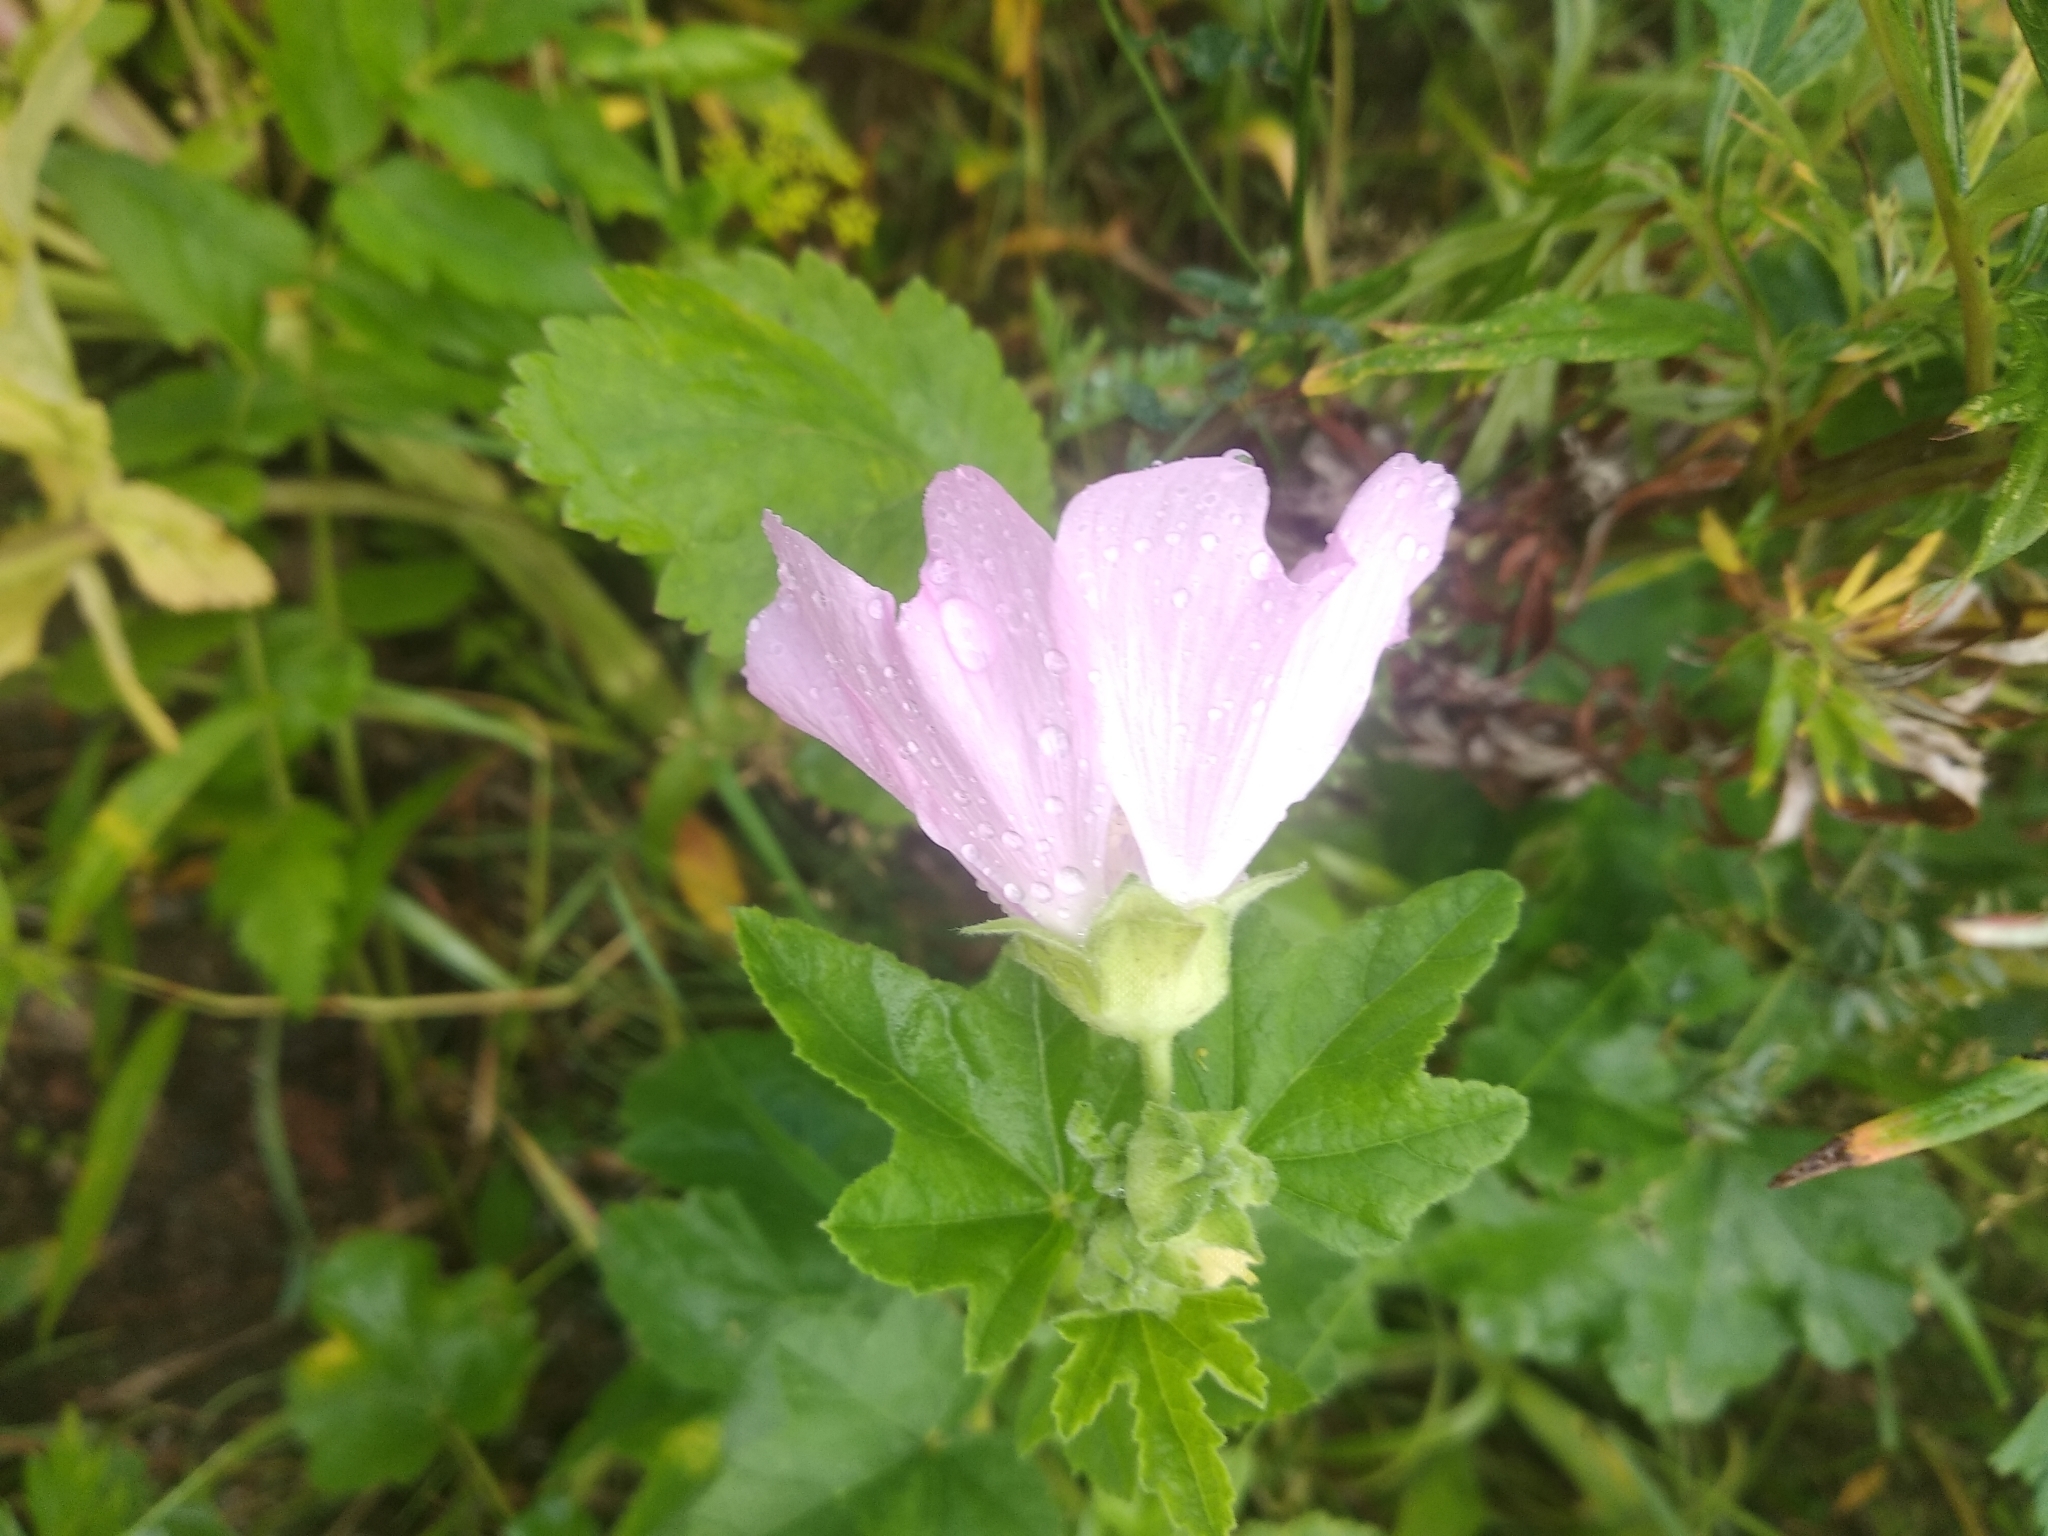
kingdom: Plantae
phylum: Tracheophyta
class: Magnoliopsida
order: Malvales
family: Malvaceae
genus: Malva
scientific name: Malva thuringiaca
